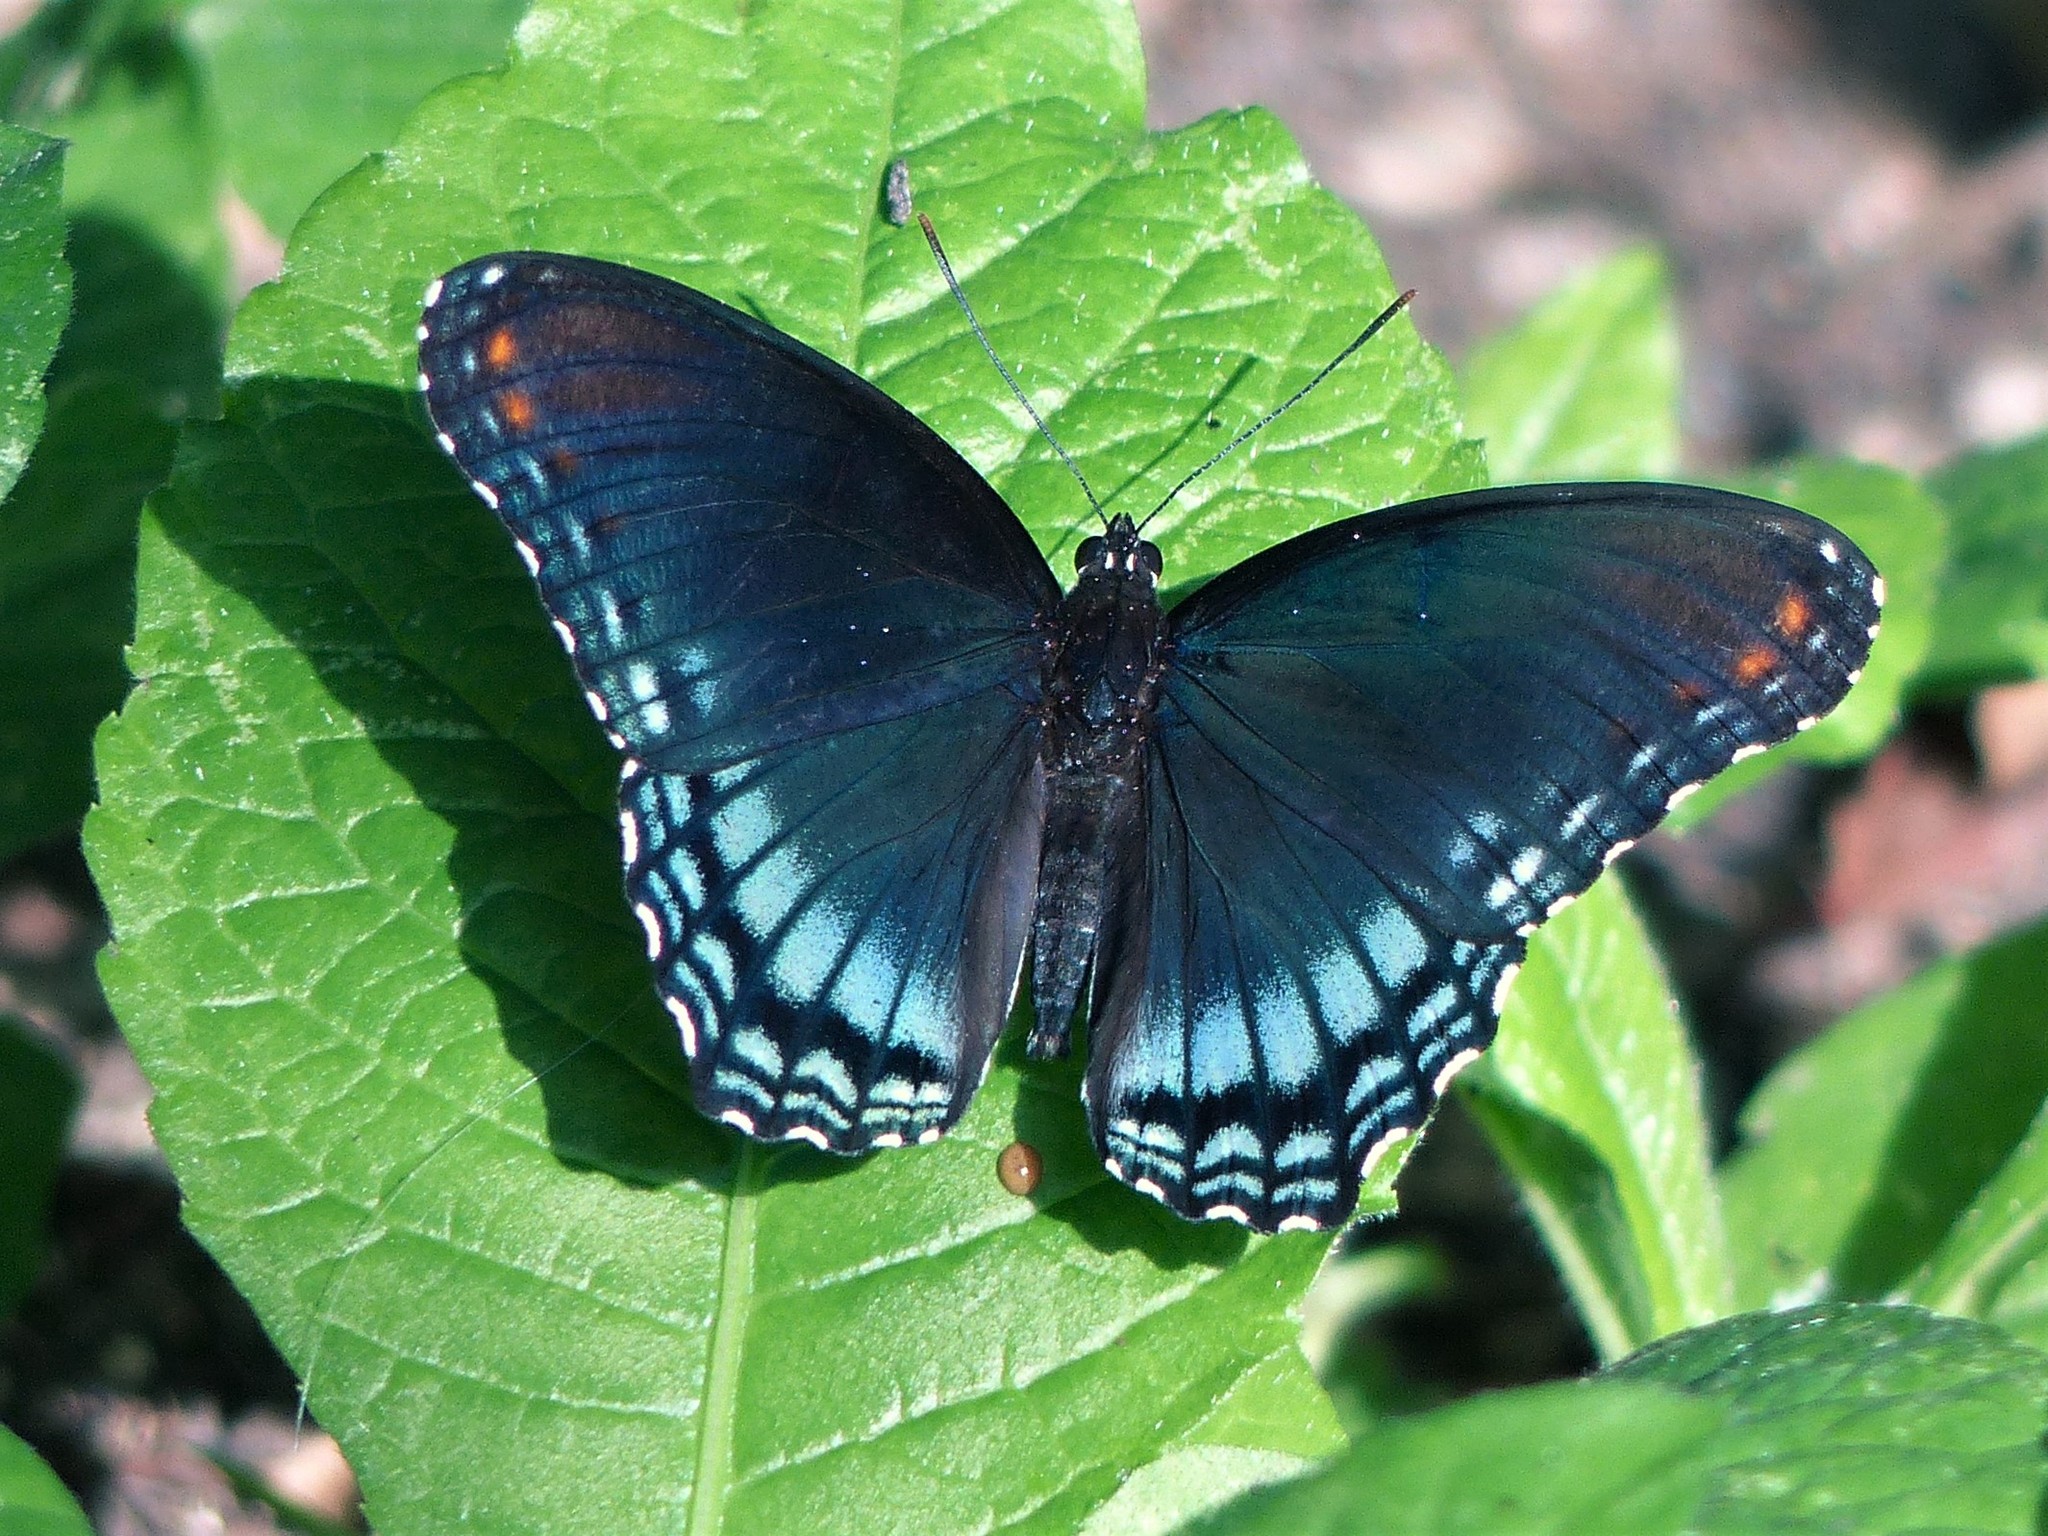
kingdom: Animalia
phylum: Arthropoda
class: Insecta
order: Lepidoptera
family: Nymphalidae
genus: Limenitis
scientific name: Limenitis astyanax
